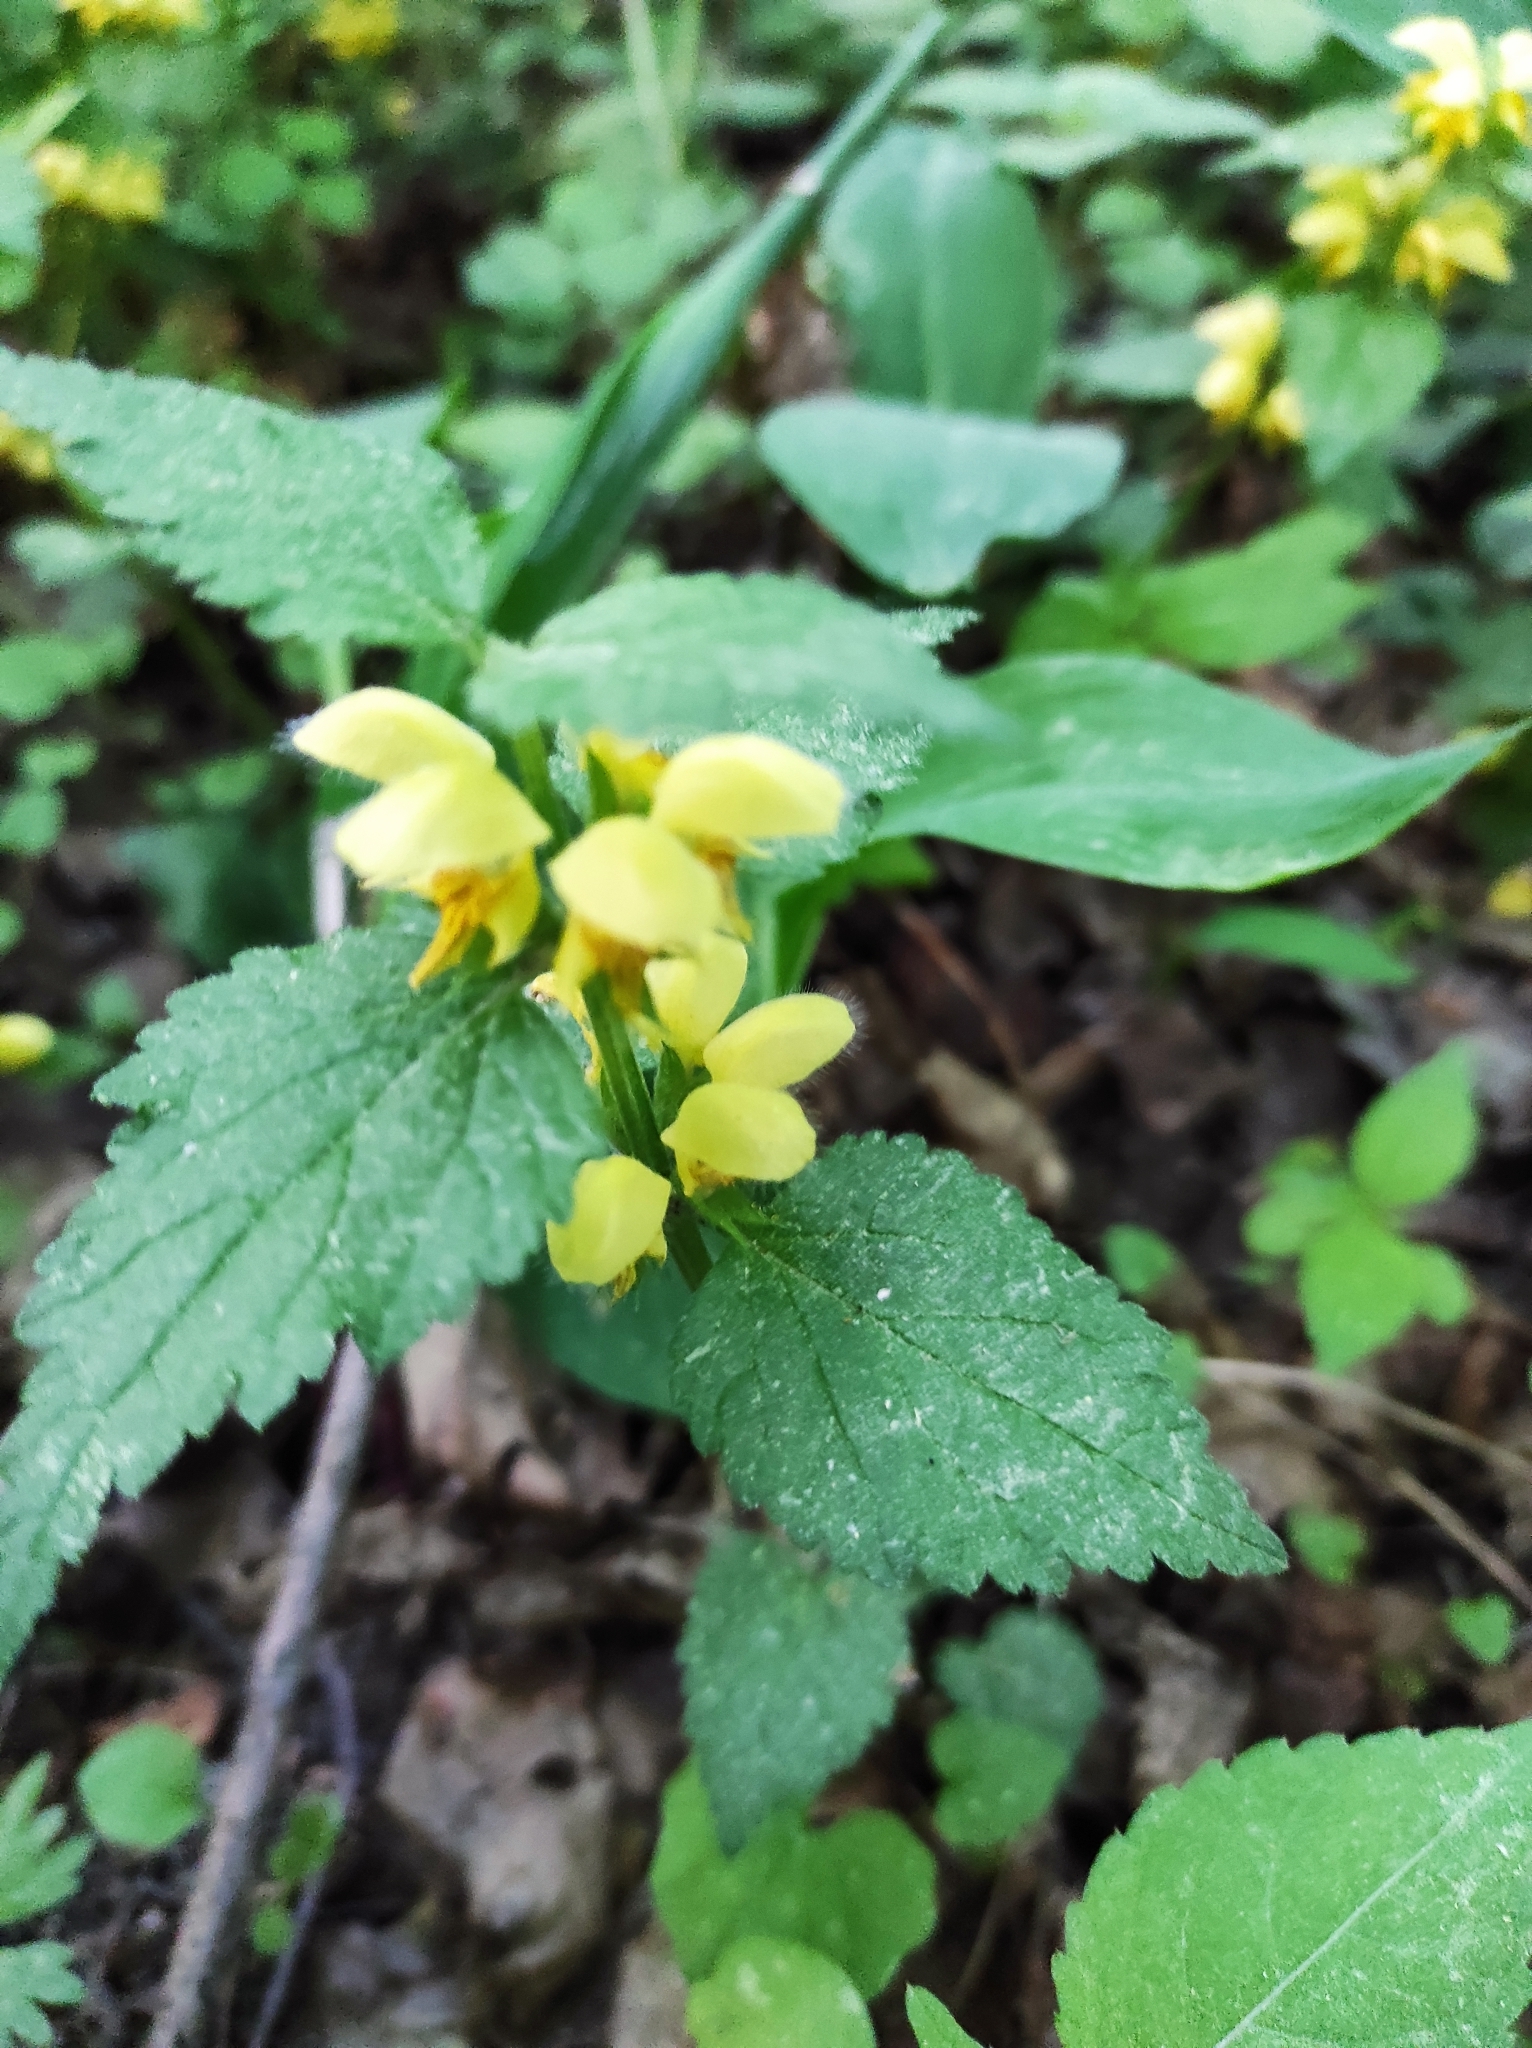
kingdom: Plantae
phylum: Tracheophyta
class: Magnoliopsida
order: Lamiales
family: Lamiaceae
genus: Lamium
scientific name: Lamium galeobdolon
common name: Yellow archangel
